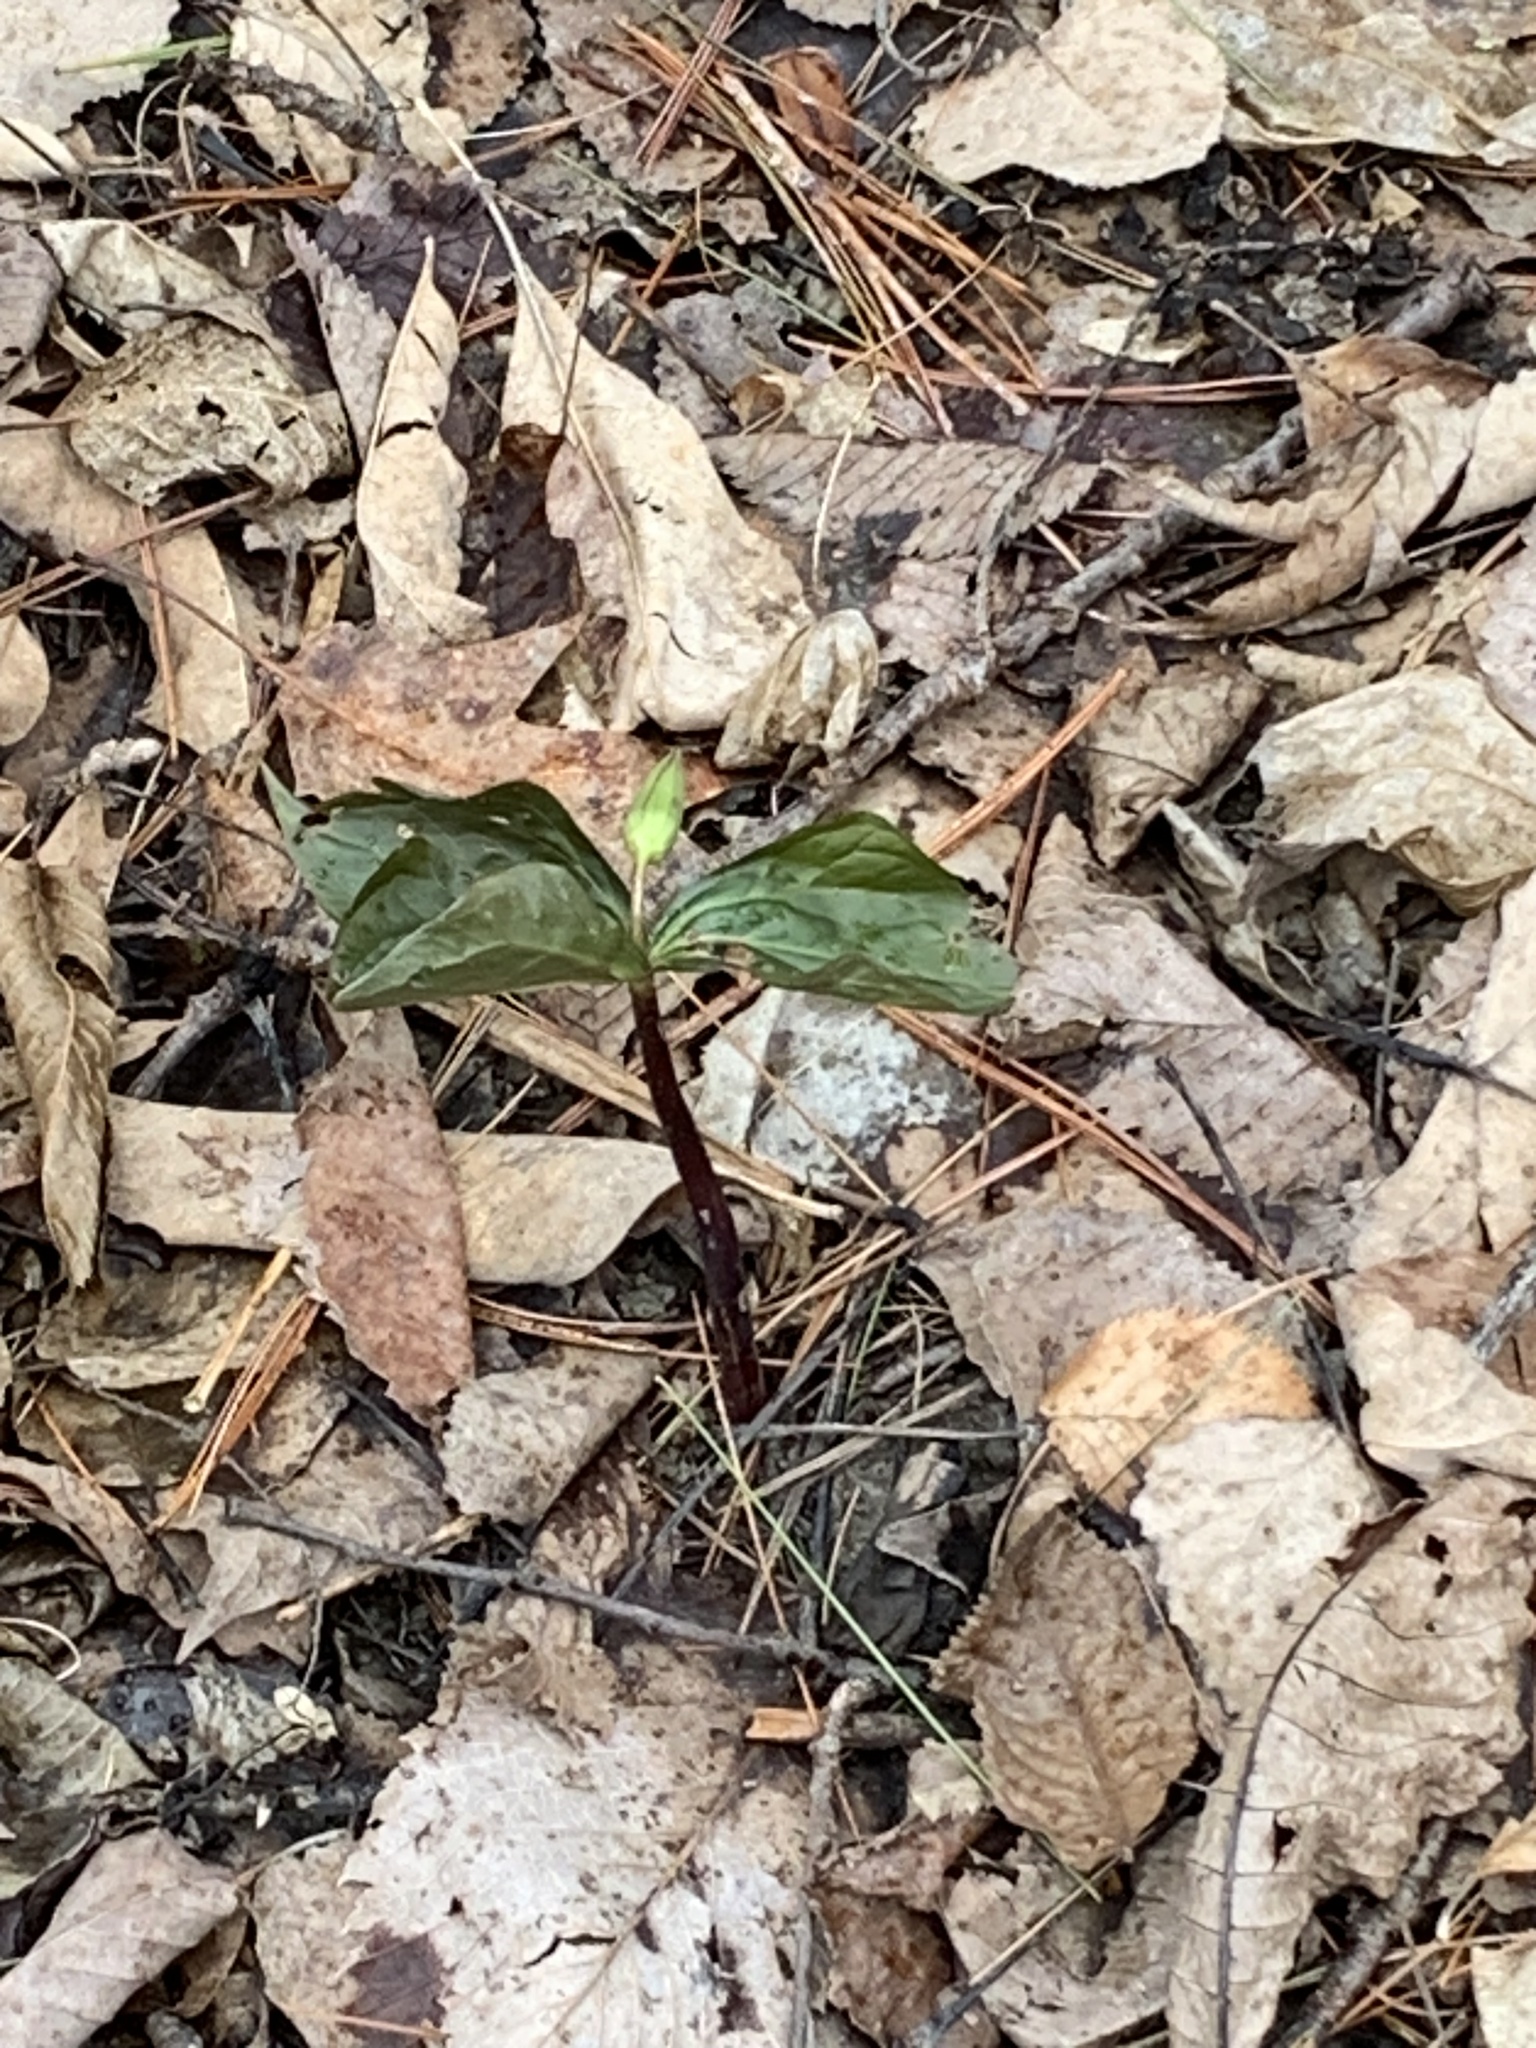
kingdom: Plantae
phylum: Tracheophyta
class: Liliopsida
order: Liliales
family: Melanthiaceae
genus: Trillium
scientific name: Trillium erectum
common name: Purple trillium
